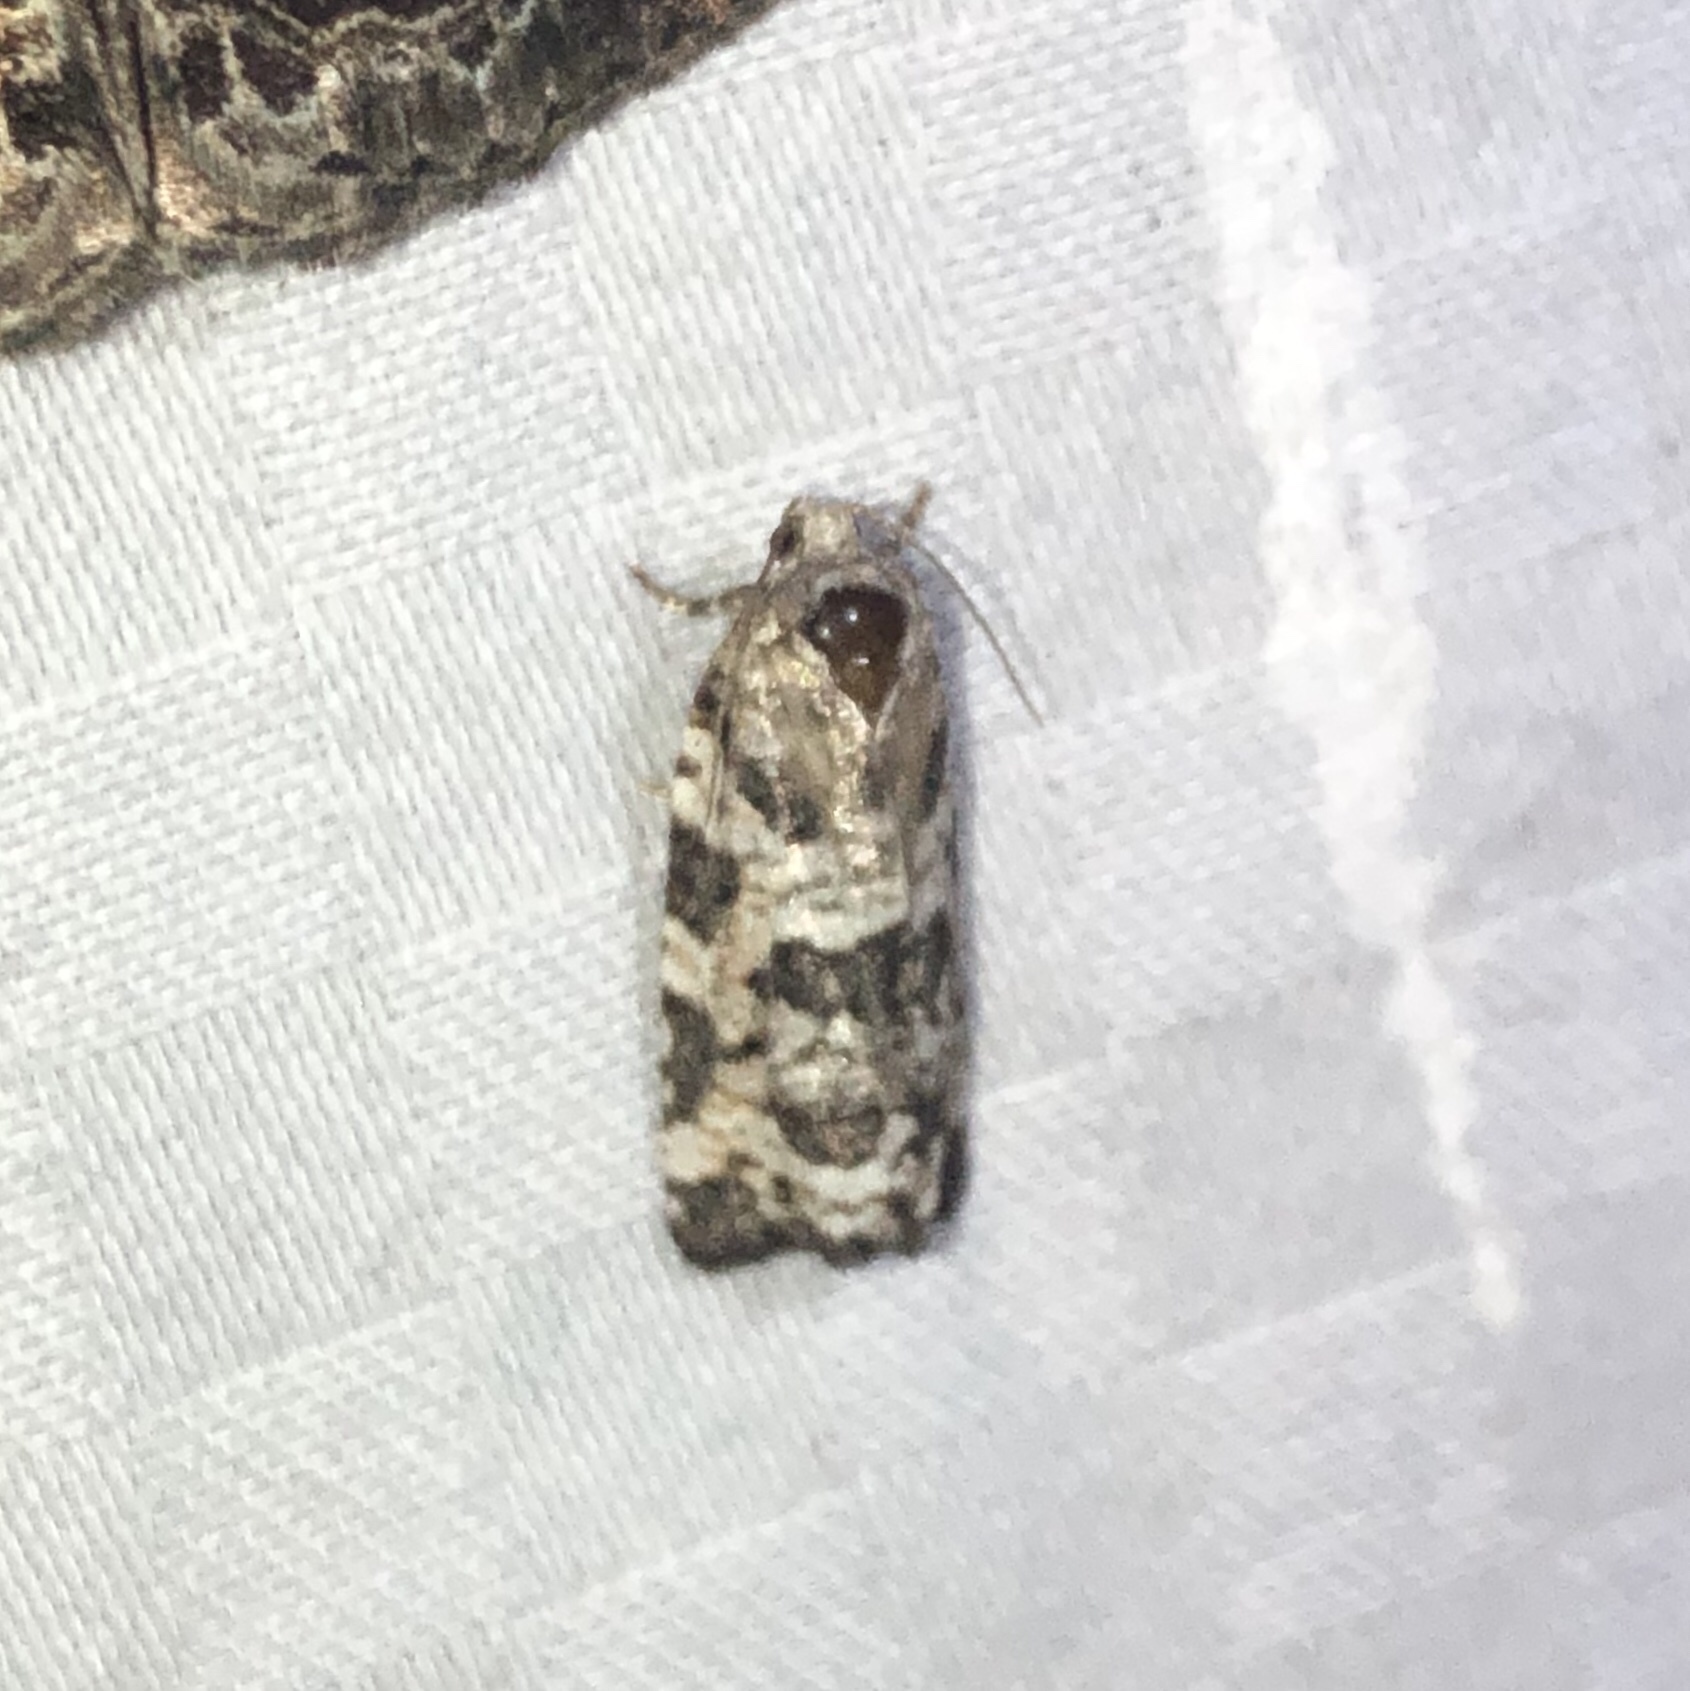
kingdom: Animalia
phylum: Arthropoda
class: Insecta
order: Lepidoptera
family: Tortricidae
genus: Archips
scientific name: Archips packardiana
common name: Spring spruce needle moth
